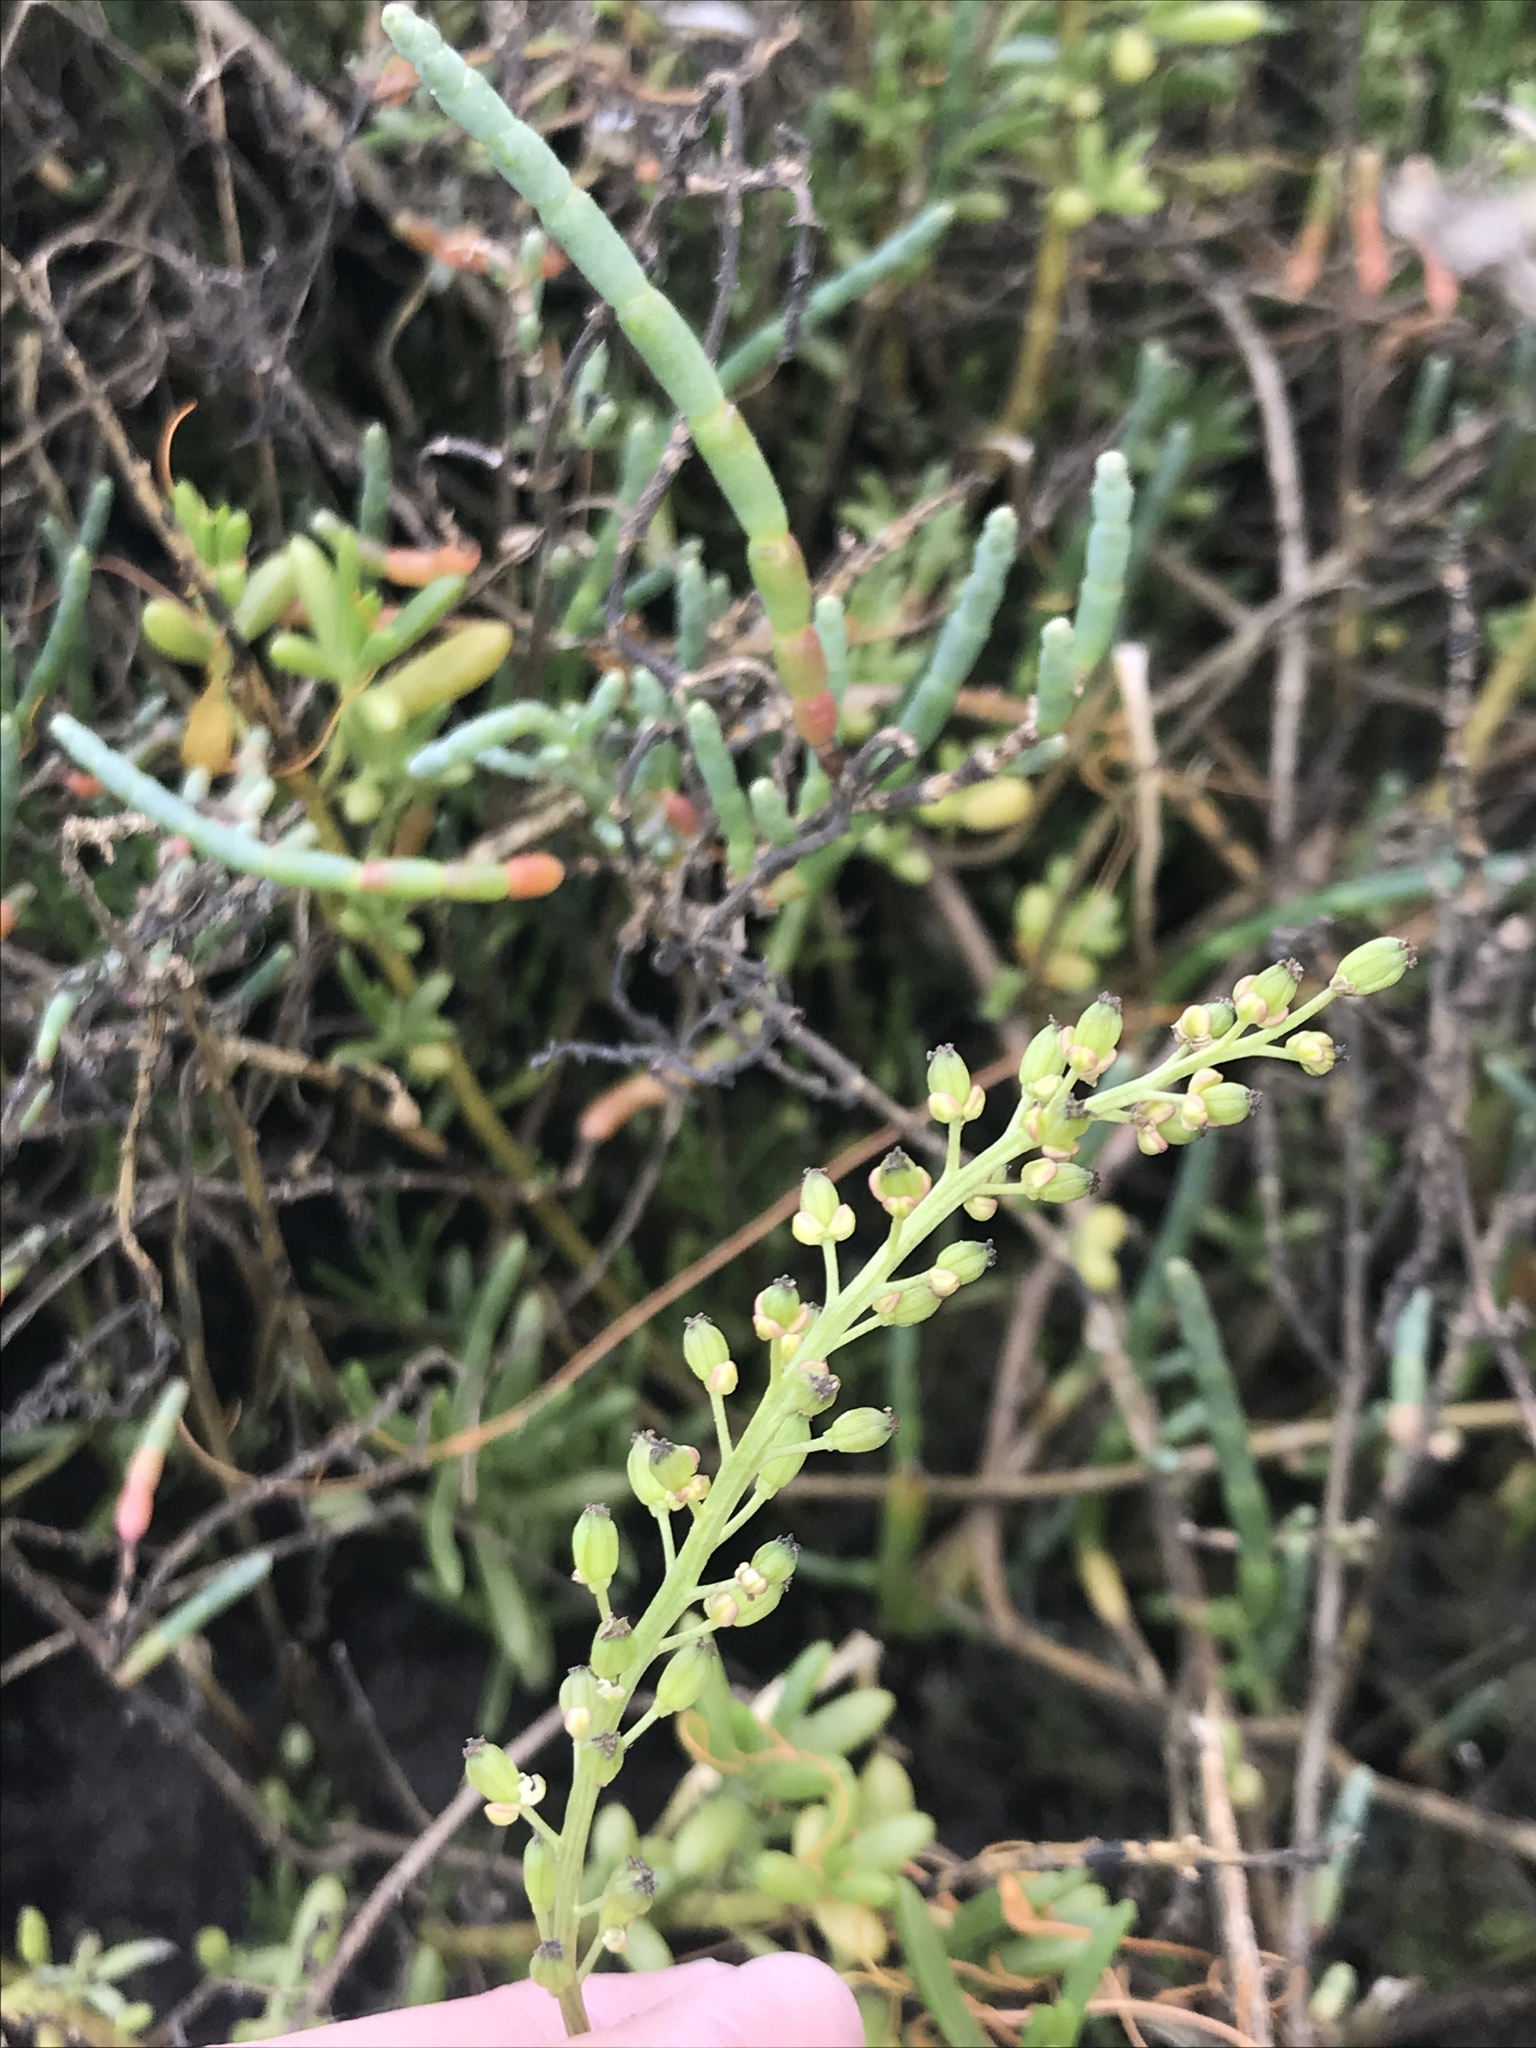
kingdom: Plantae
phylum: Tracheophyta
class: Liliopsida
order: Alismatales
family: Juncaginaceae
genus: Triglochin
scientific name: Triglochin maritima
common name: Sea arrowgrass
